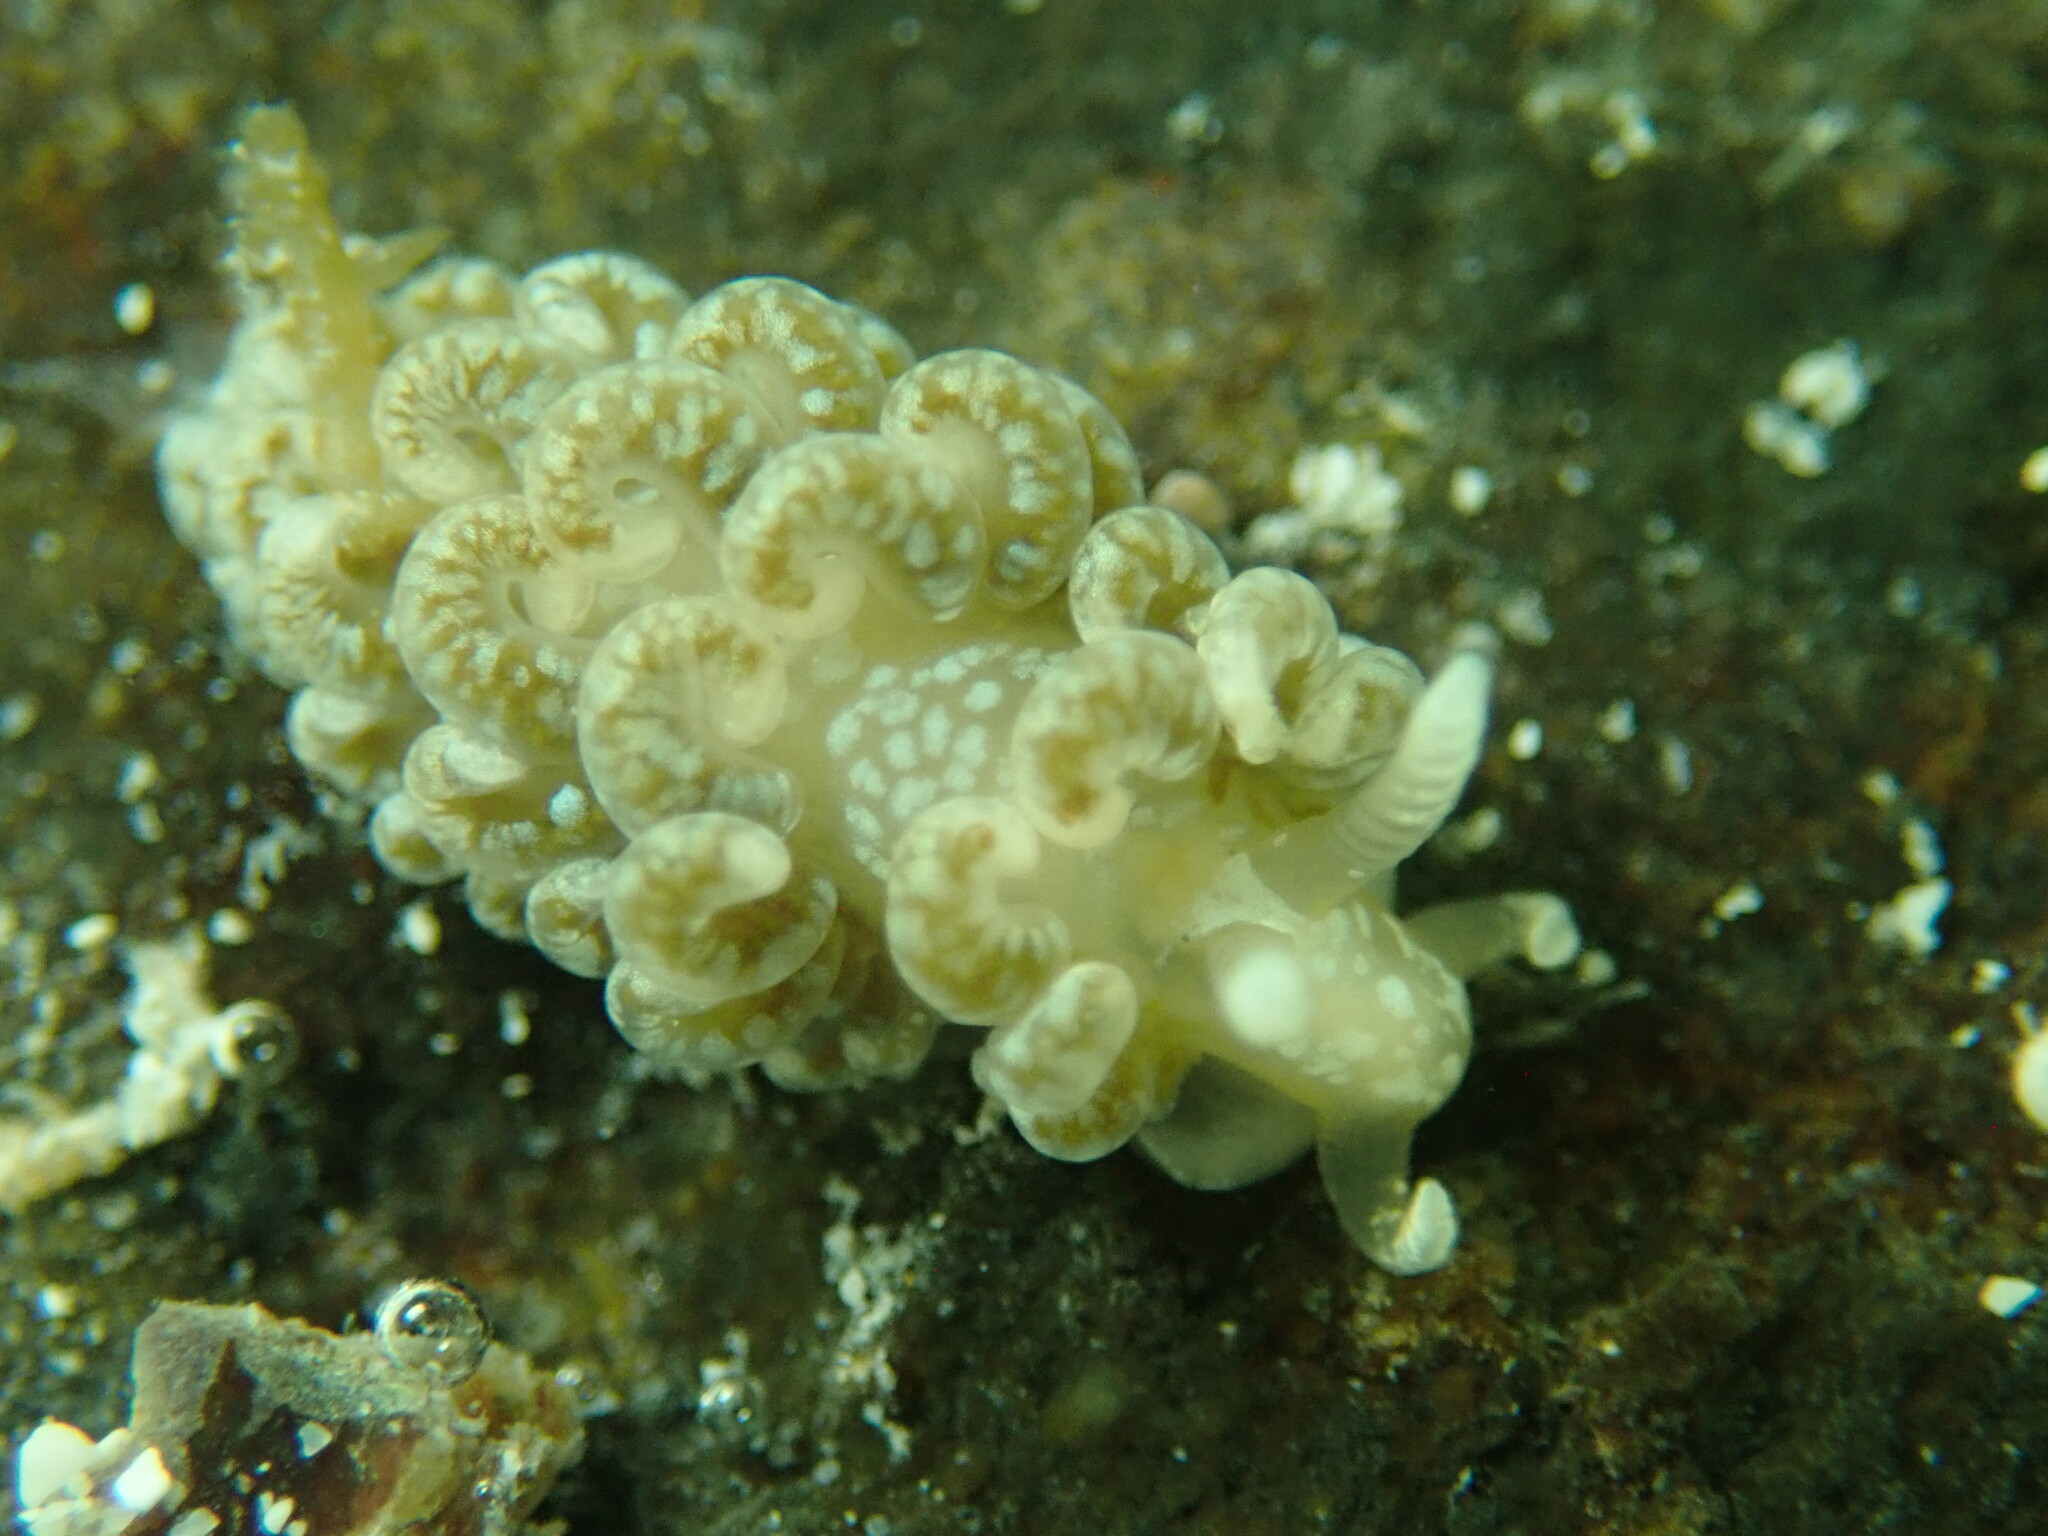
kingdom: Animalia
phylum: Mollusca
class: Gastropoda
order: Nudibranchia
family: Aeolidiidae
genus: Spurilla
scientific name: Spurilla braziliana
